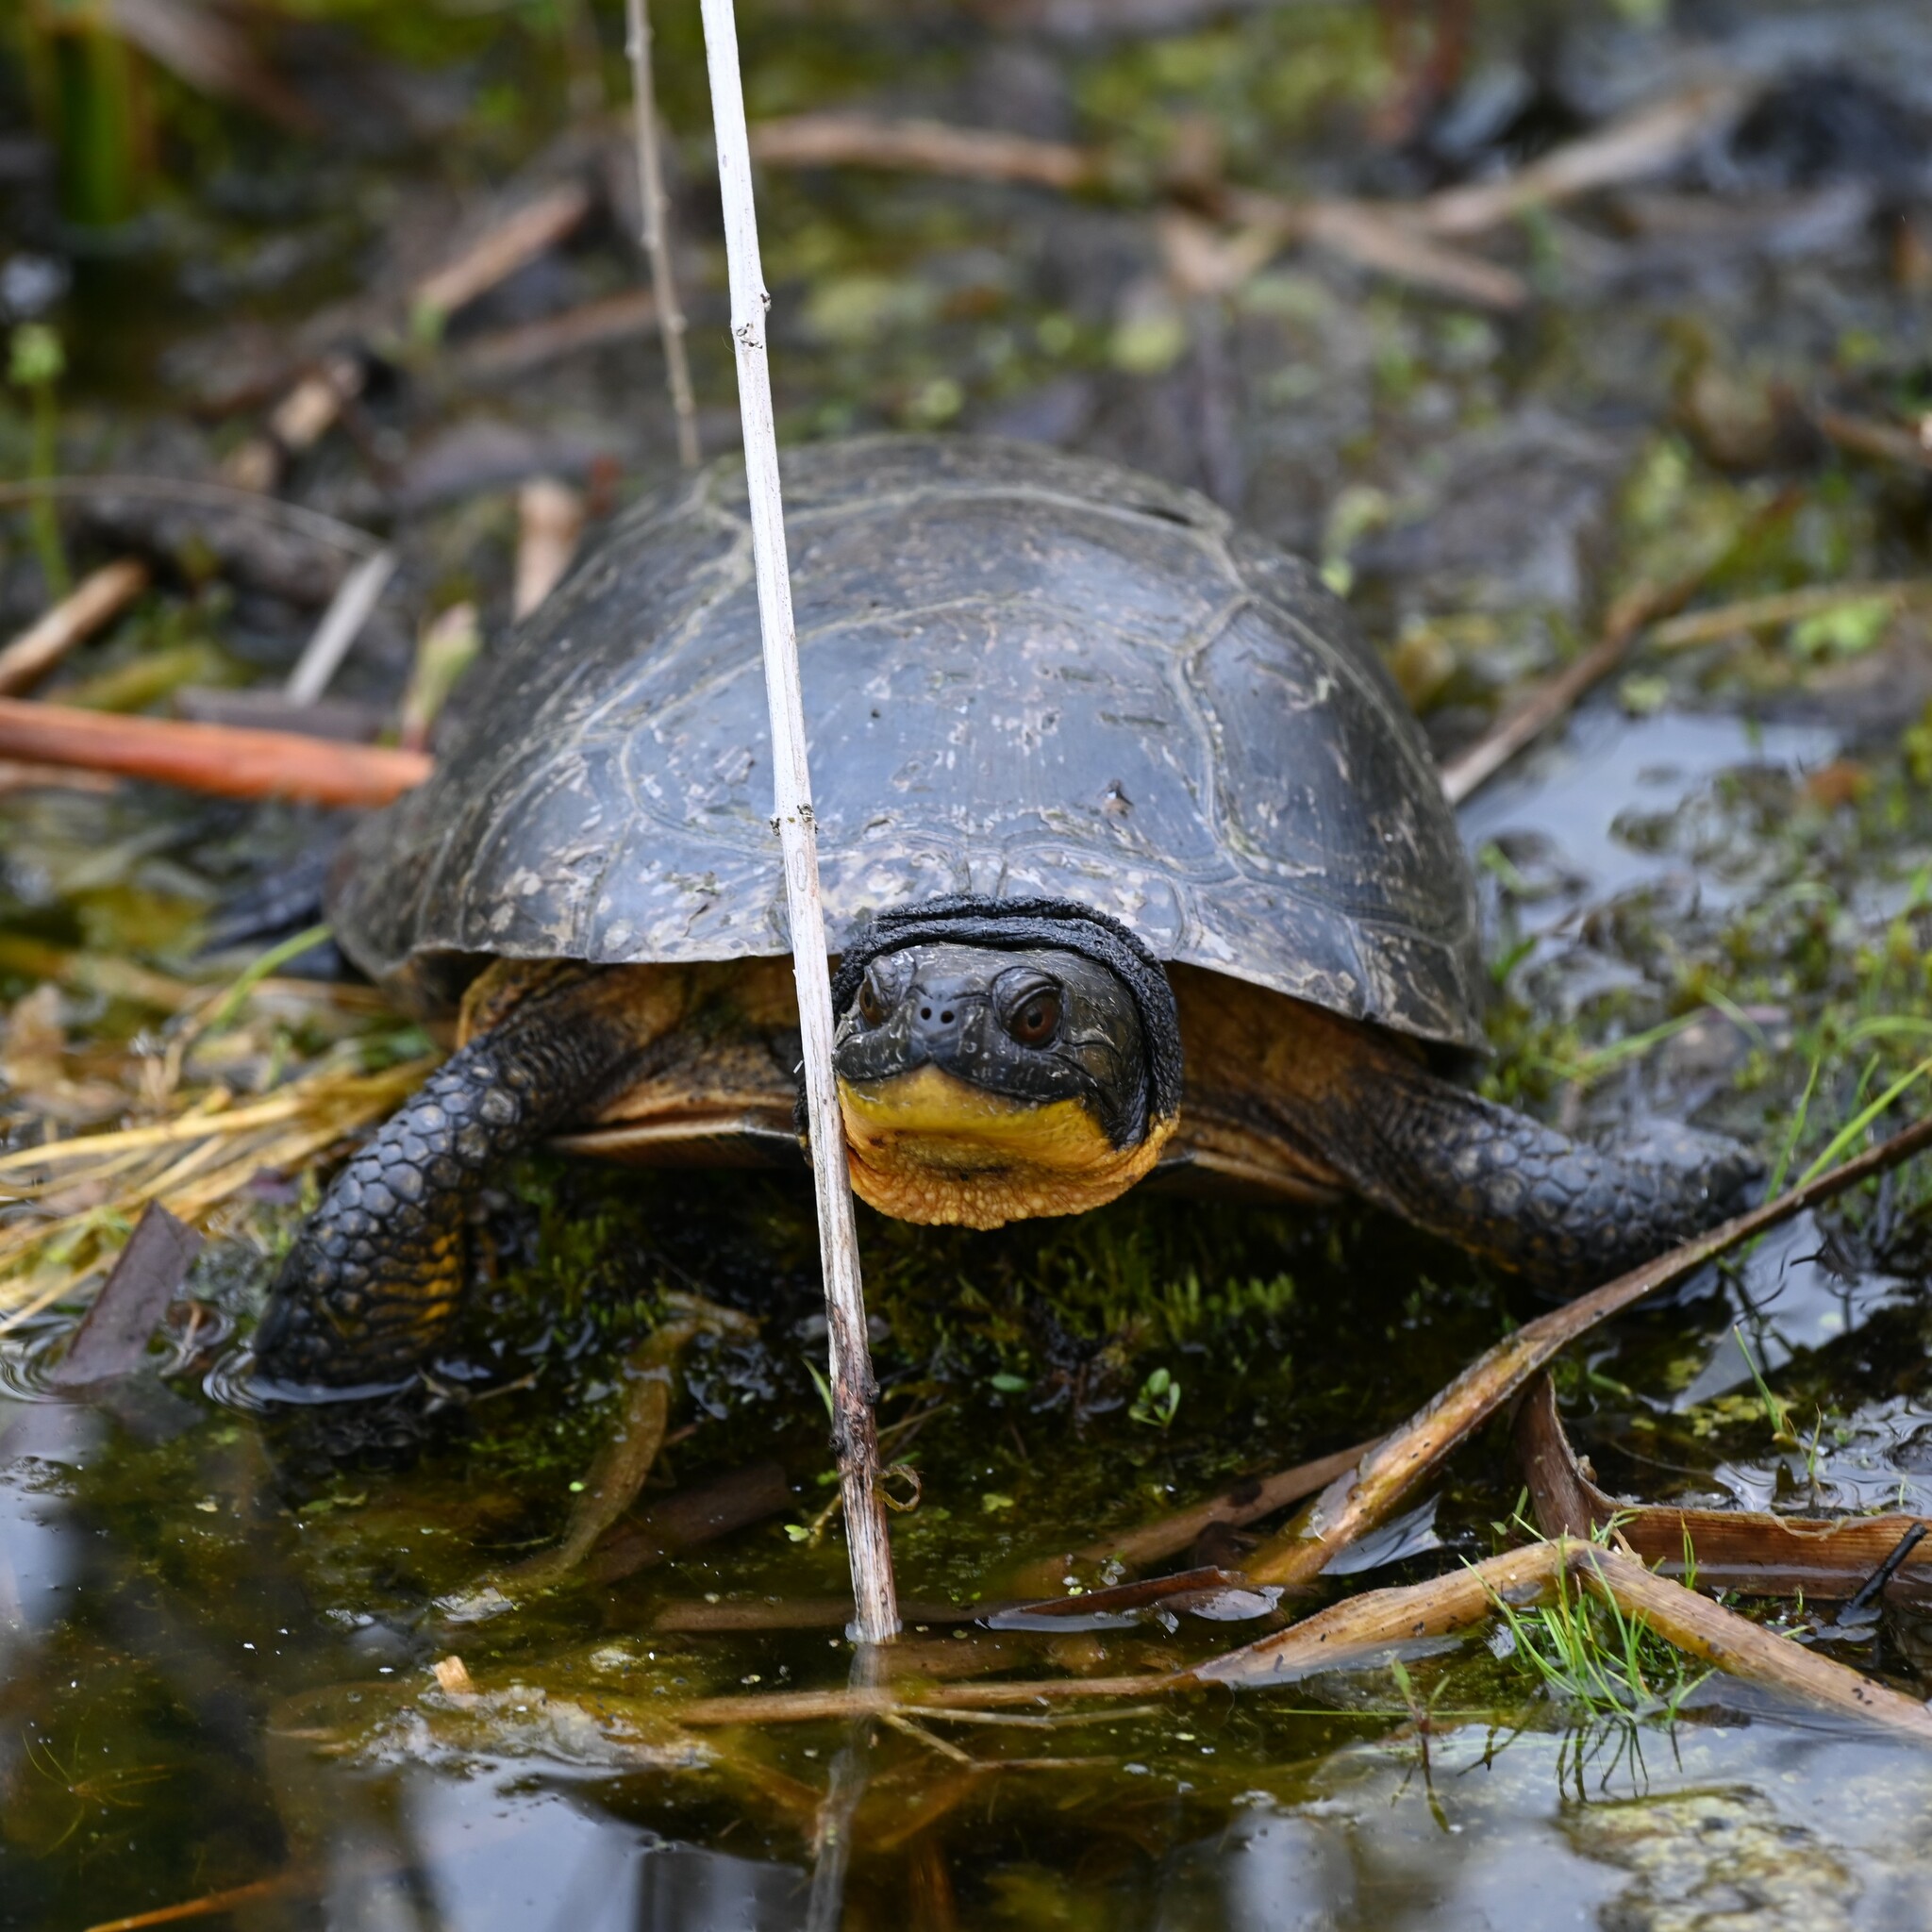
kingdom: Animalia
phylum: Chordata
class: Testudines
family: Emydidae
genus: Emys
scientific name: Emys blandingii
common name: Blanding's turtle
